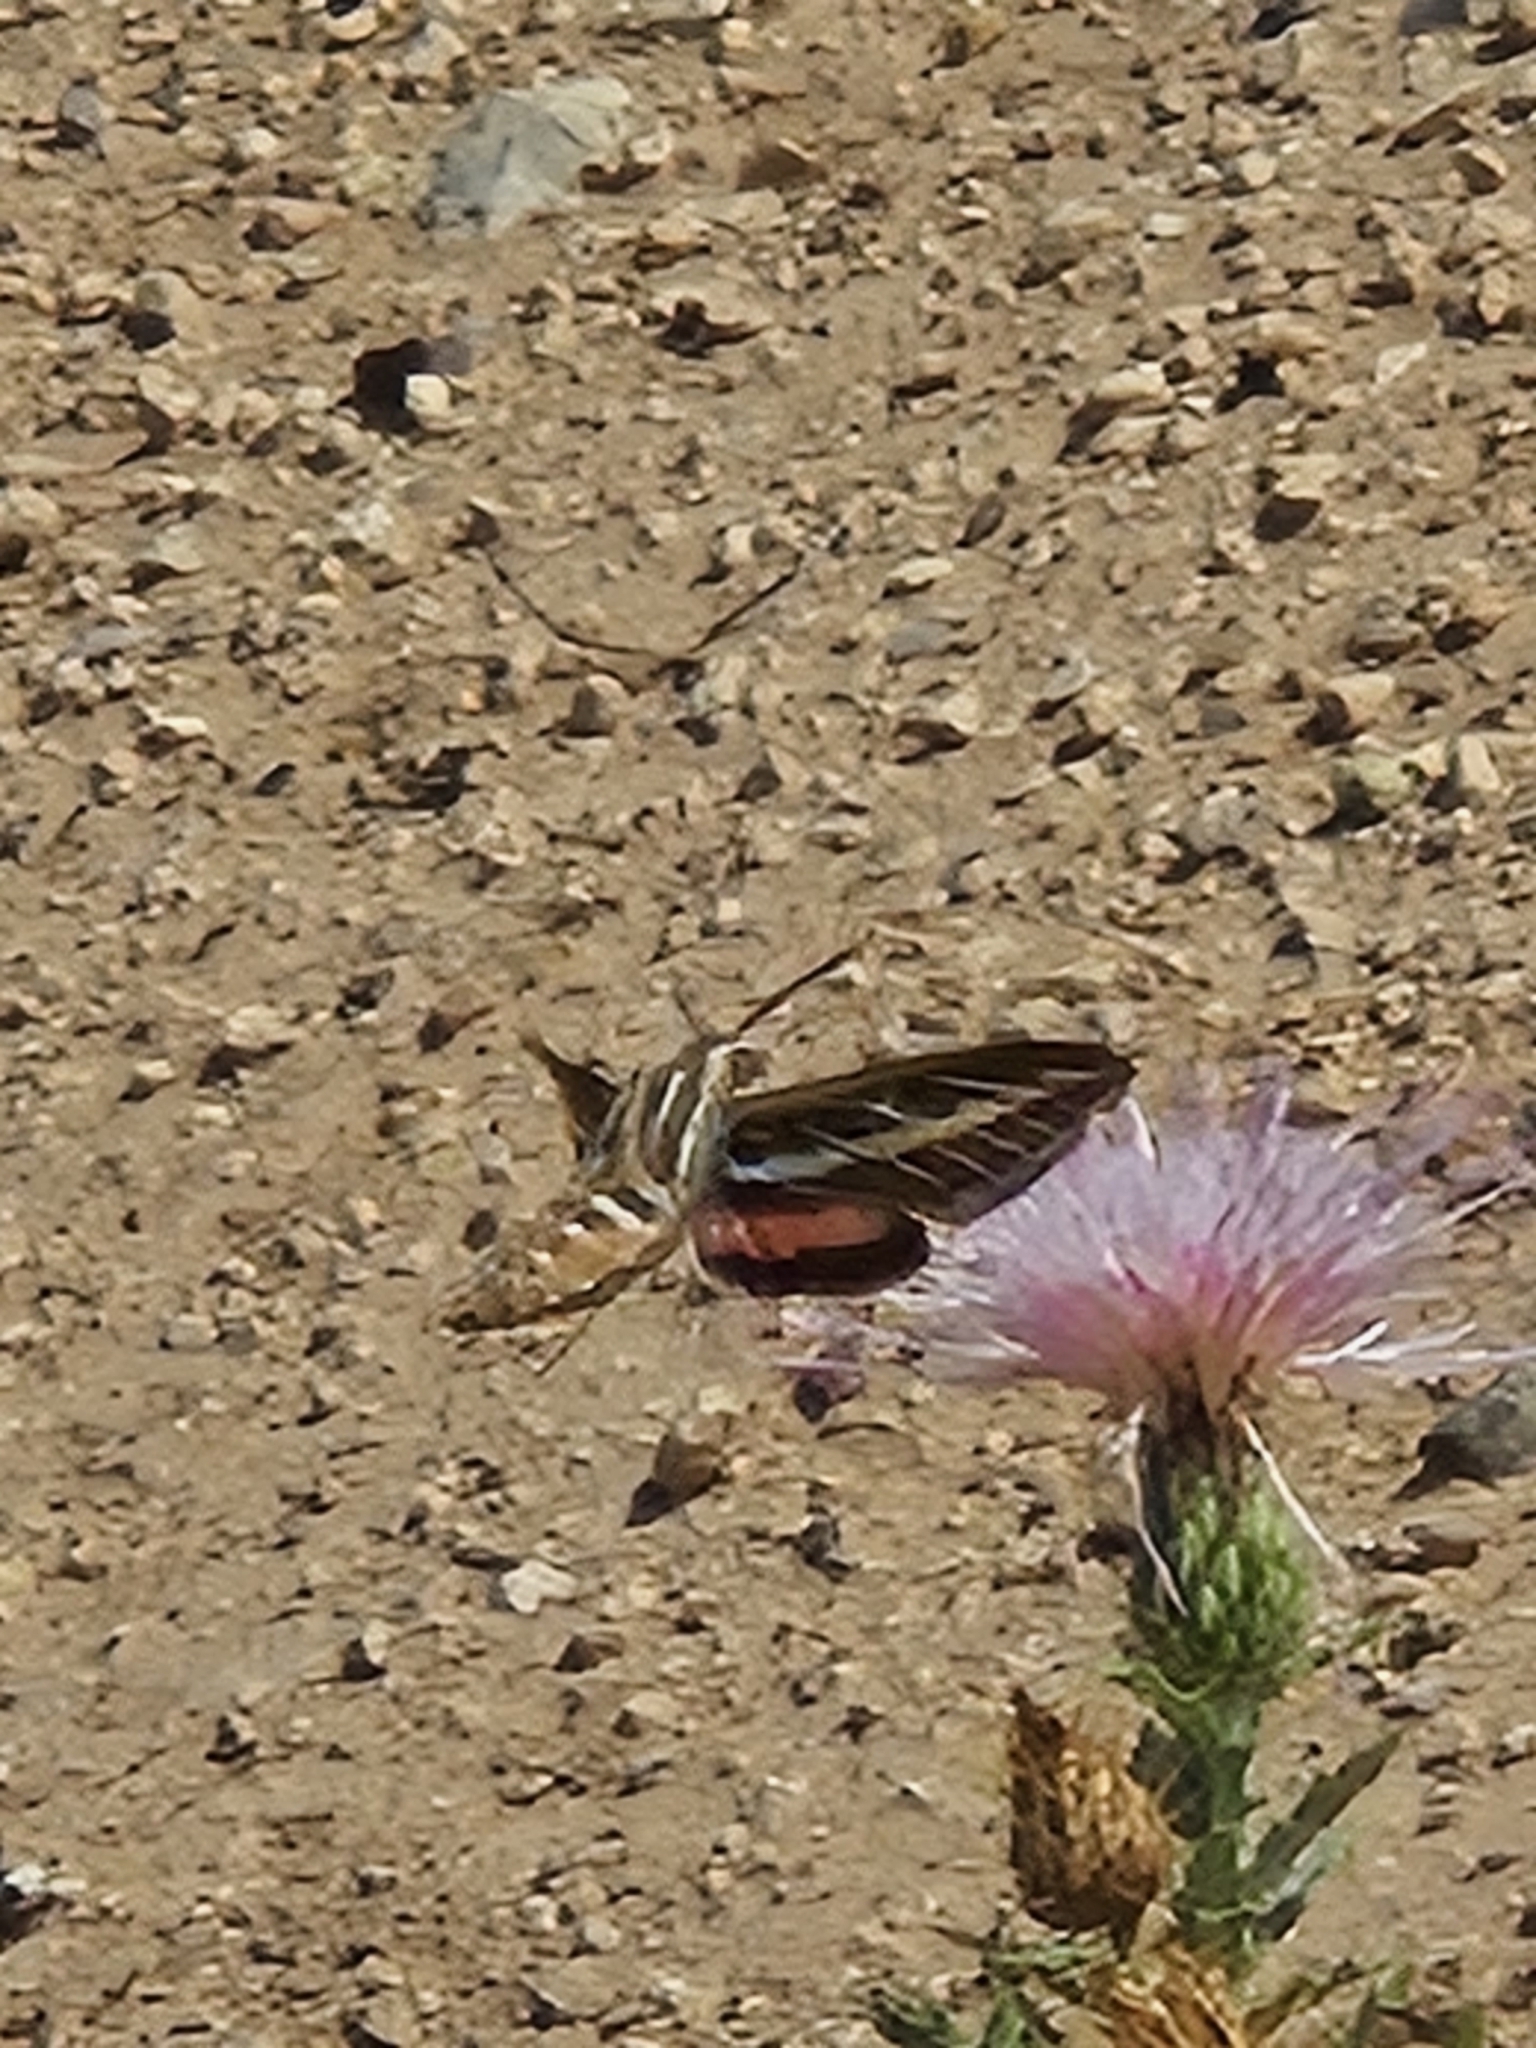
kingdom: Animalia
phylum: Arthropoda
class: Insecta
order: Lepidoptera
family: Sphingidae
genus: Hyles
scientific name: Hyles lineata
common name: White-lined sphinx
